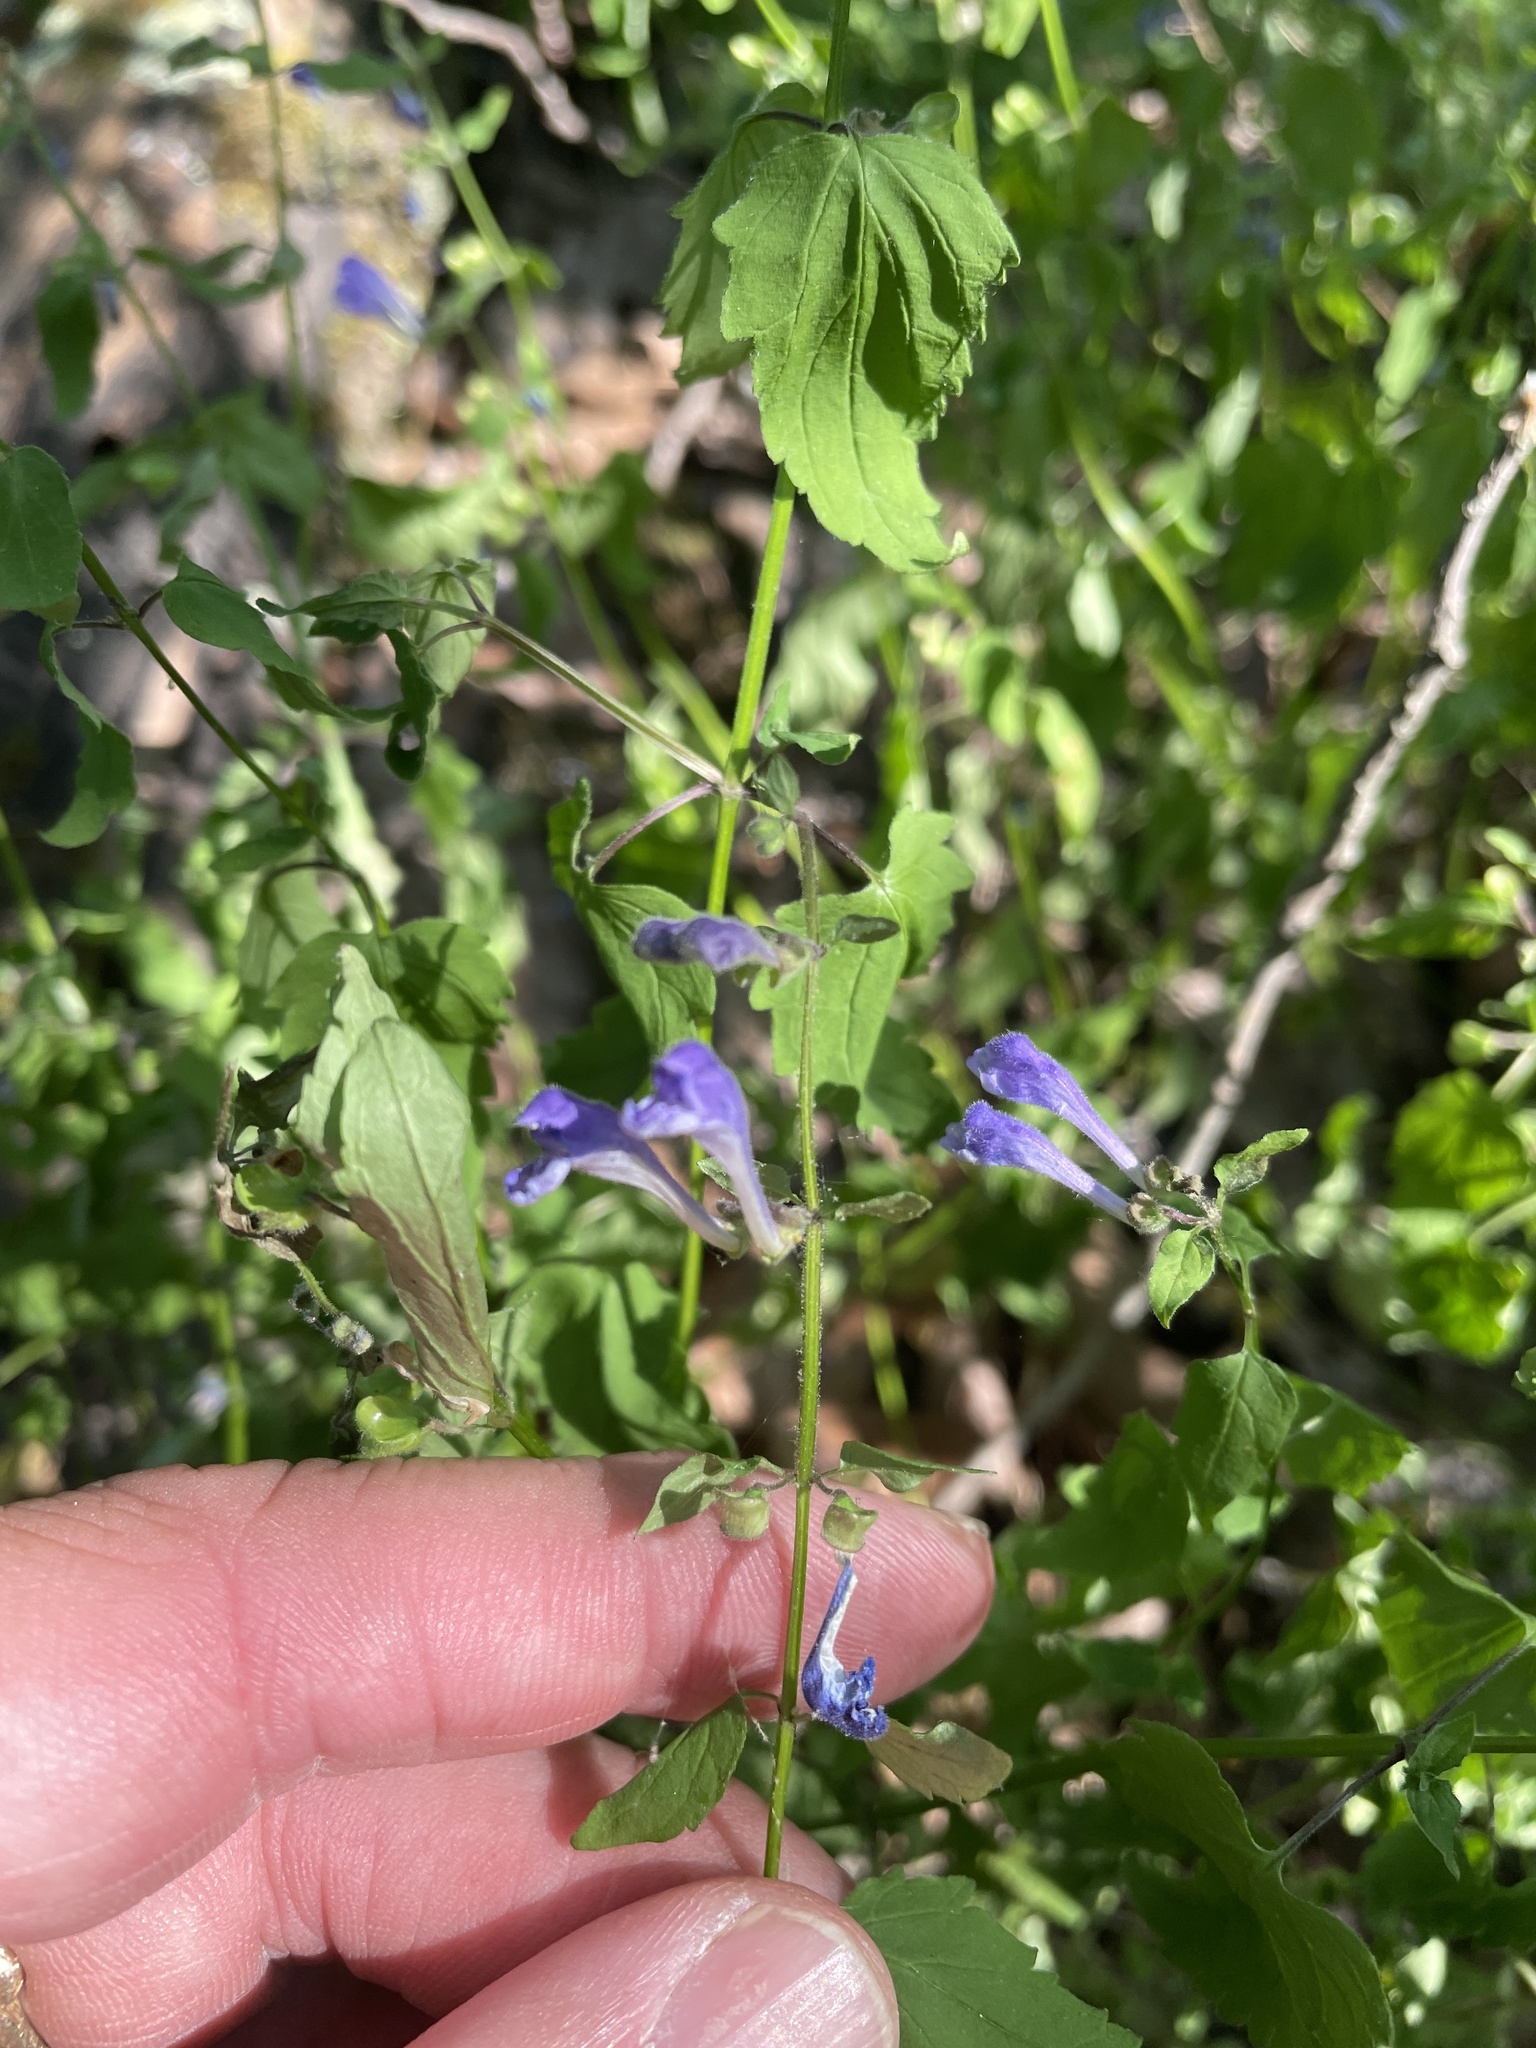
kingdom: Plantae
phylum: Tracheophyta
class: Magnoliopsida
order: Lamiales
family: Lamiaceae
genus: Scutellaria
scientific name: Scutellaria saxatilis
